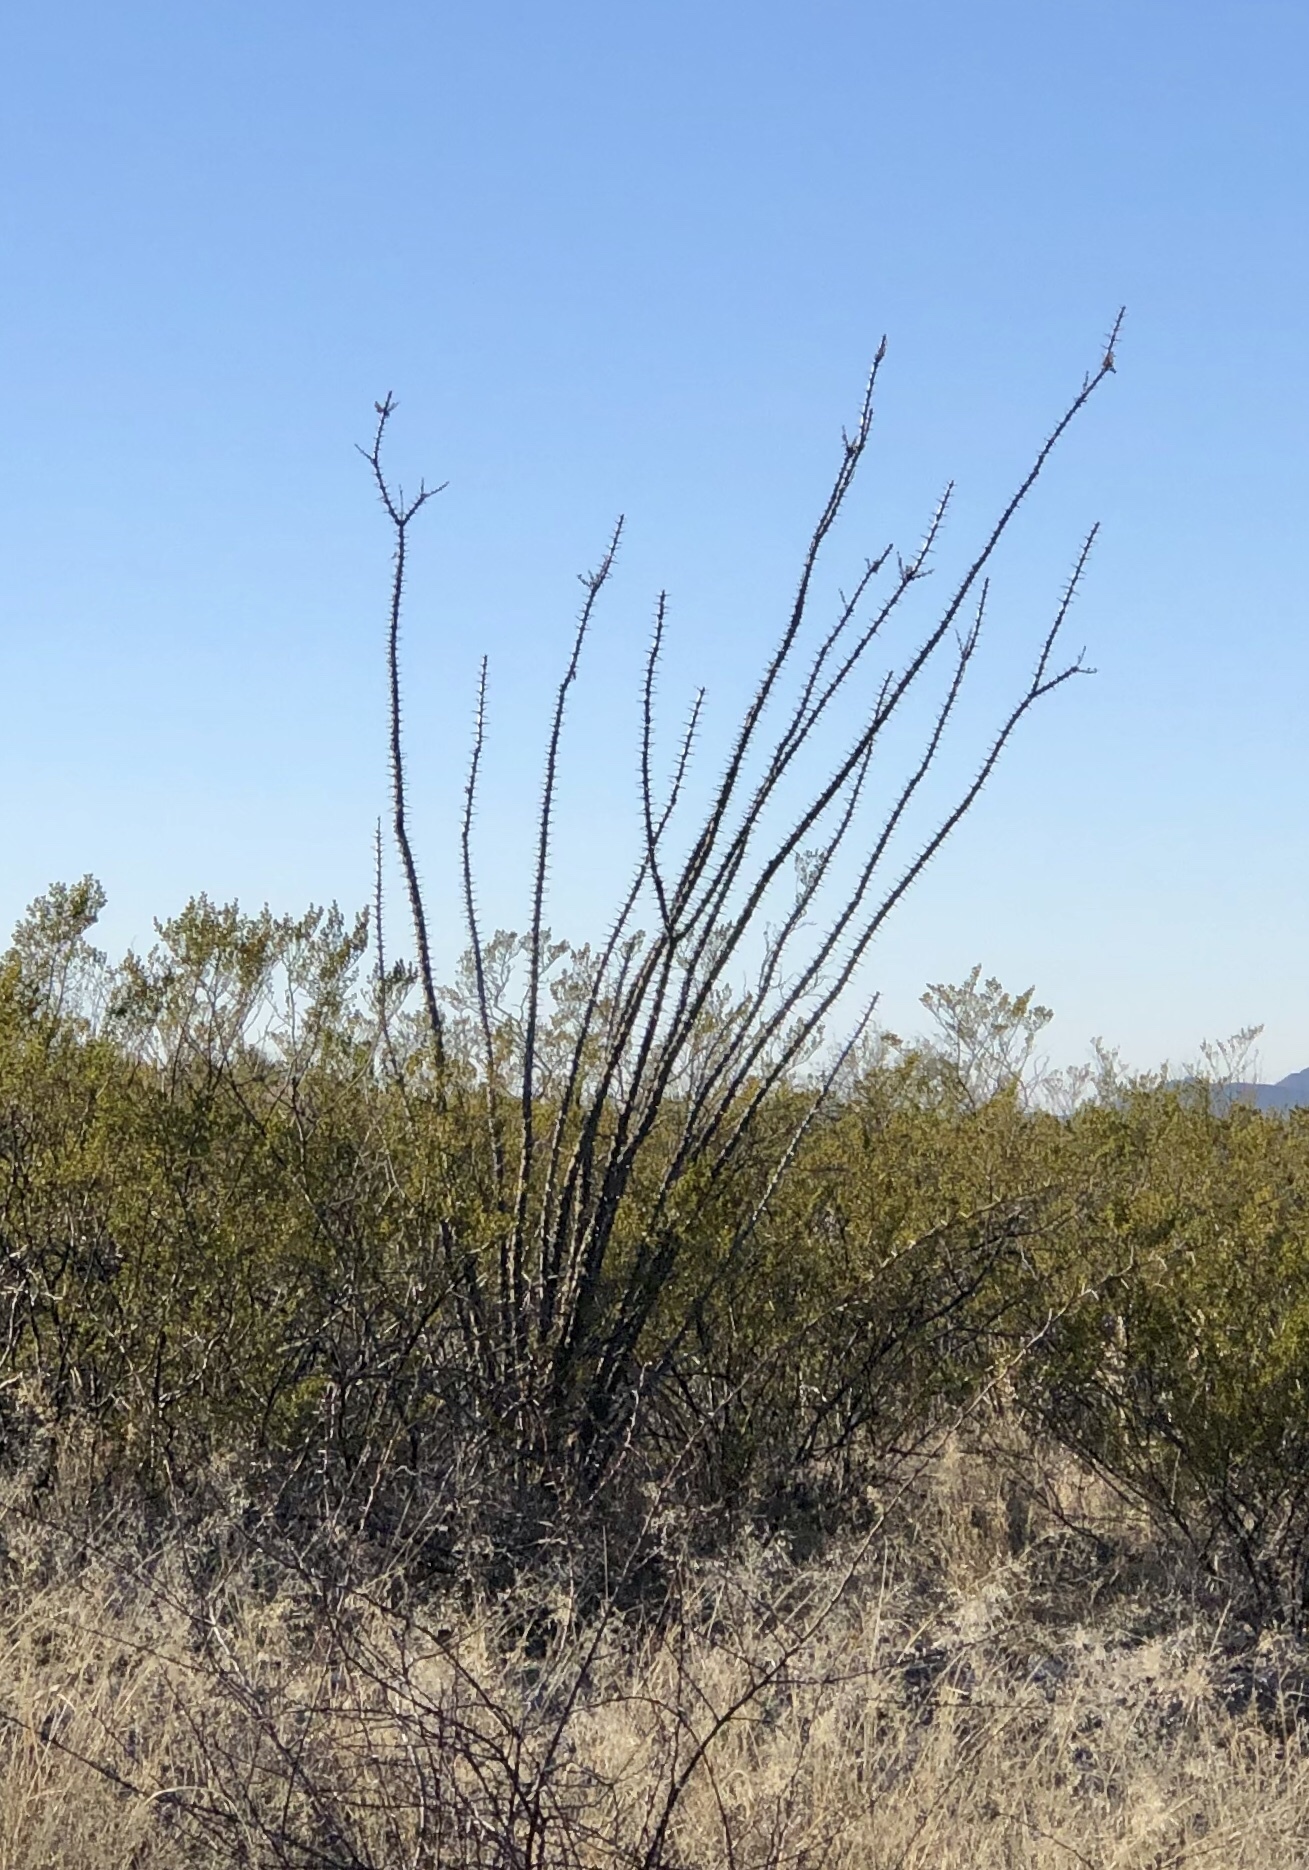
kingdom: Plantae
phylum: Tracheophyta
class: Magnoliopsida
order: Ericales
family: Fouquieriaceae
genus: Fouquieria
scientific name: Fouquieria splendens
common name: Vine-cactus
